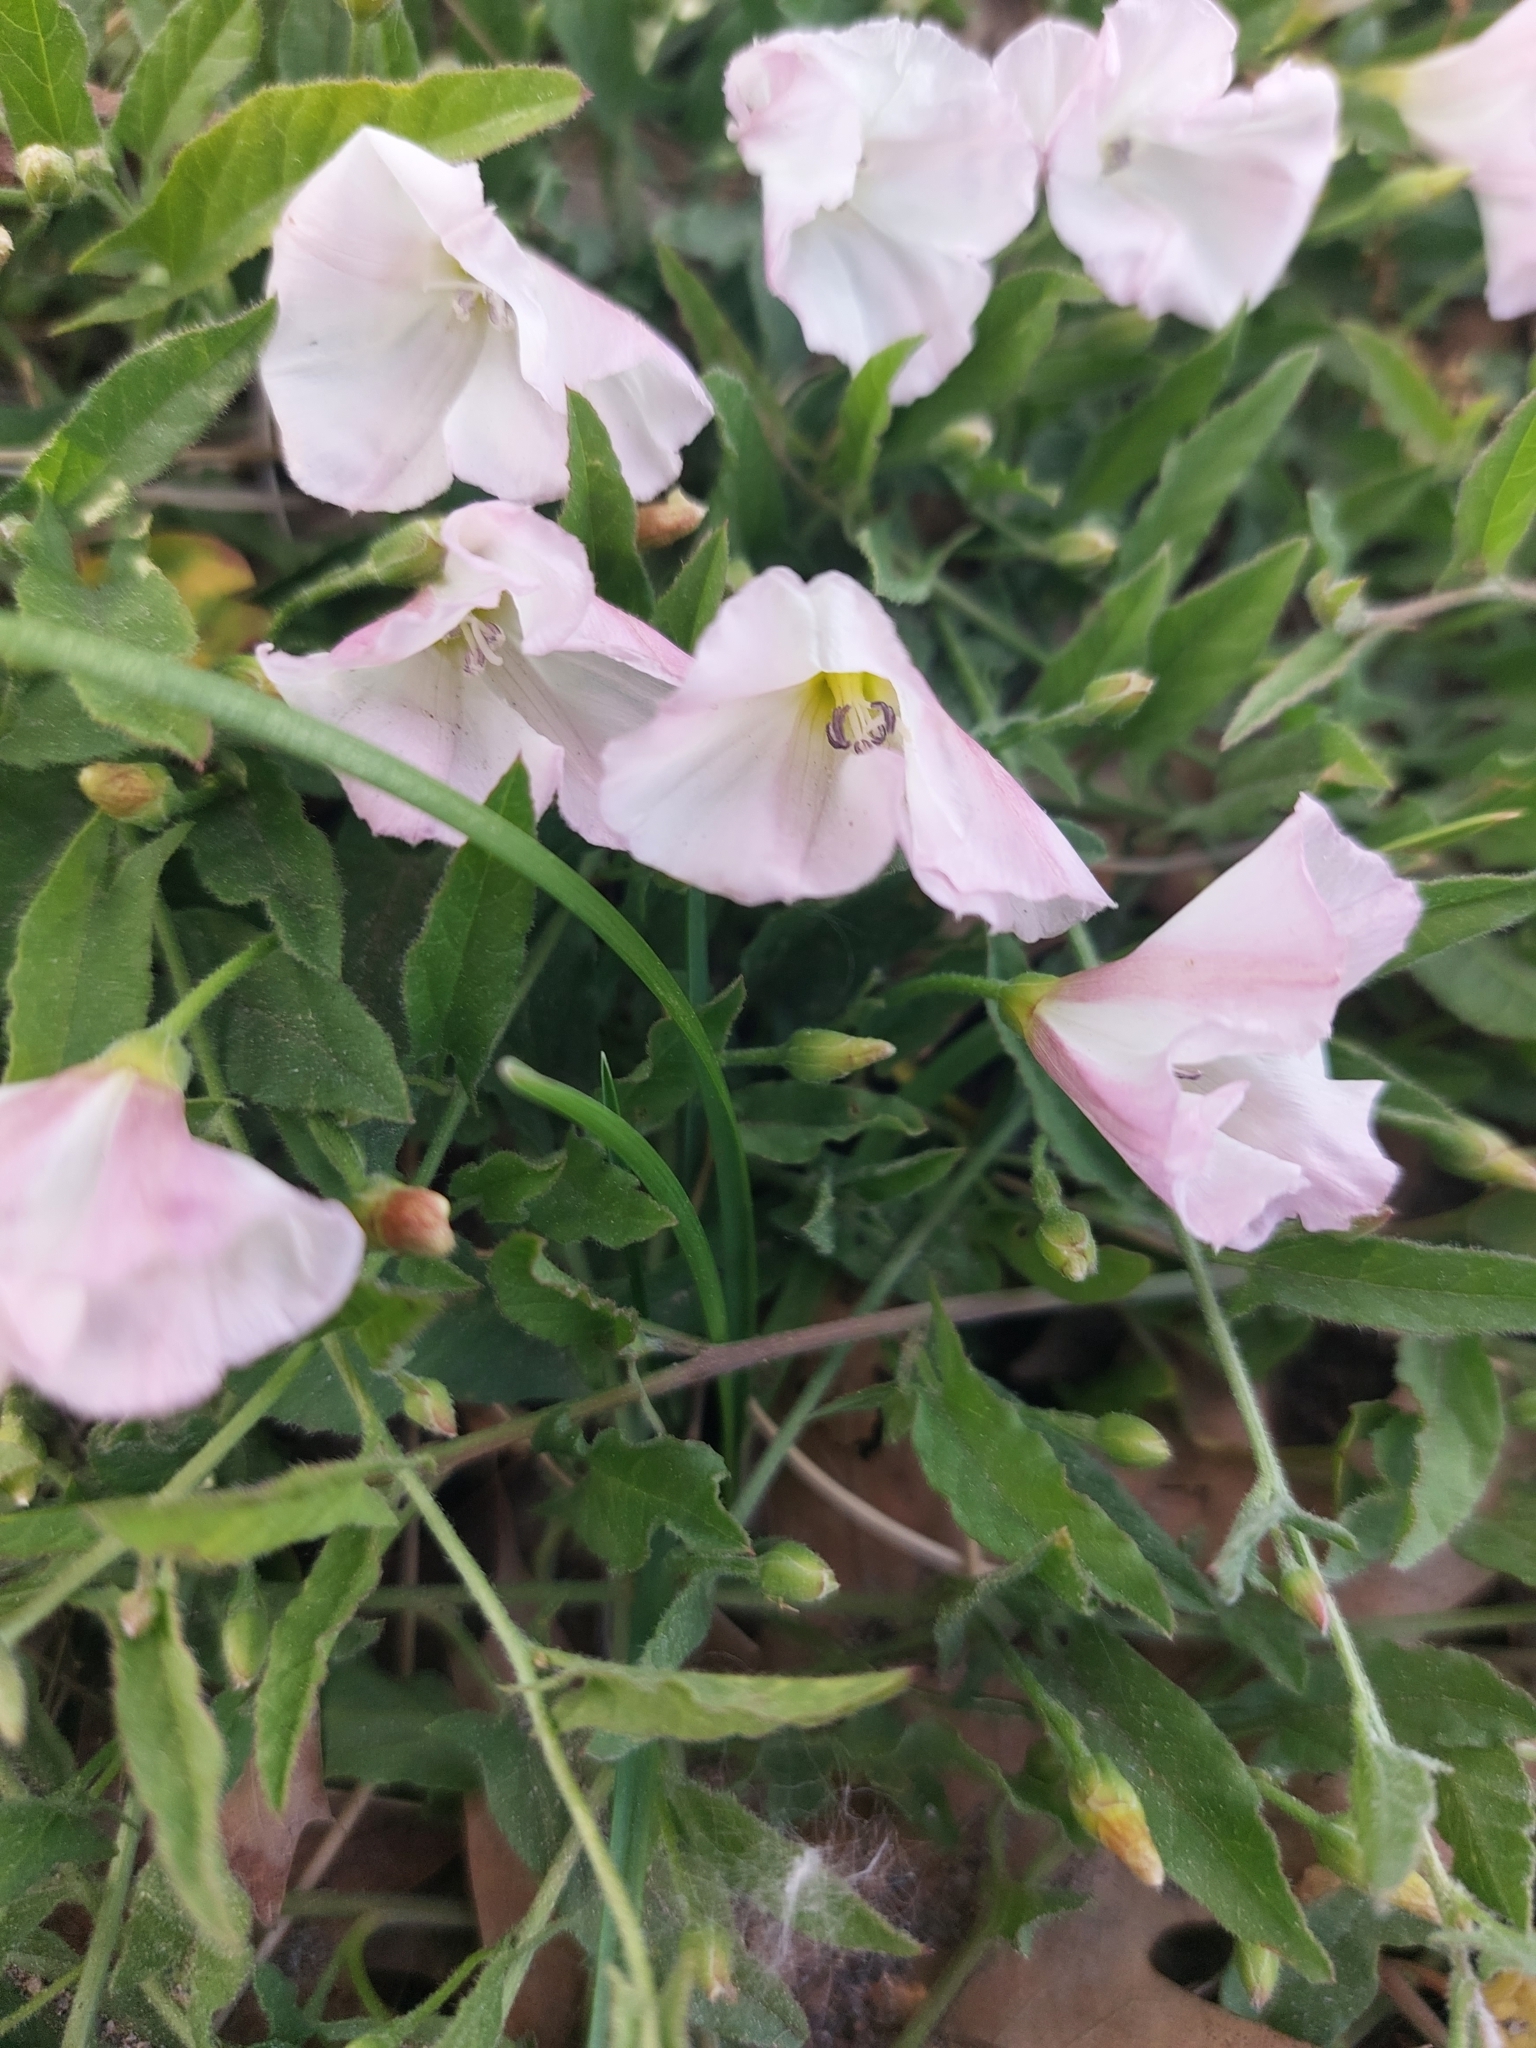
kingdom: Plantae
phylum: Tracheophyta
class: Magnoliopsida
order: Solanales
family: Convolvulaceae
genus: Convolvulus
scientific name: Convolvulus arvensis
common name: Field bindweed
